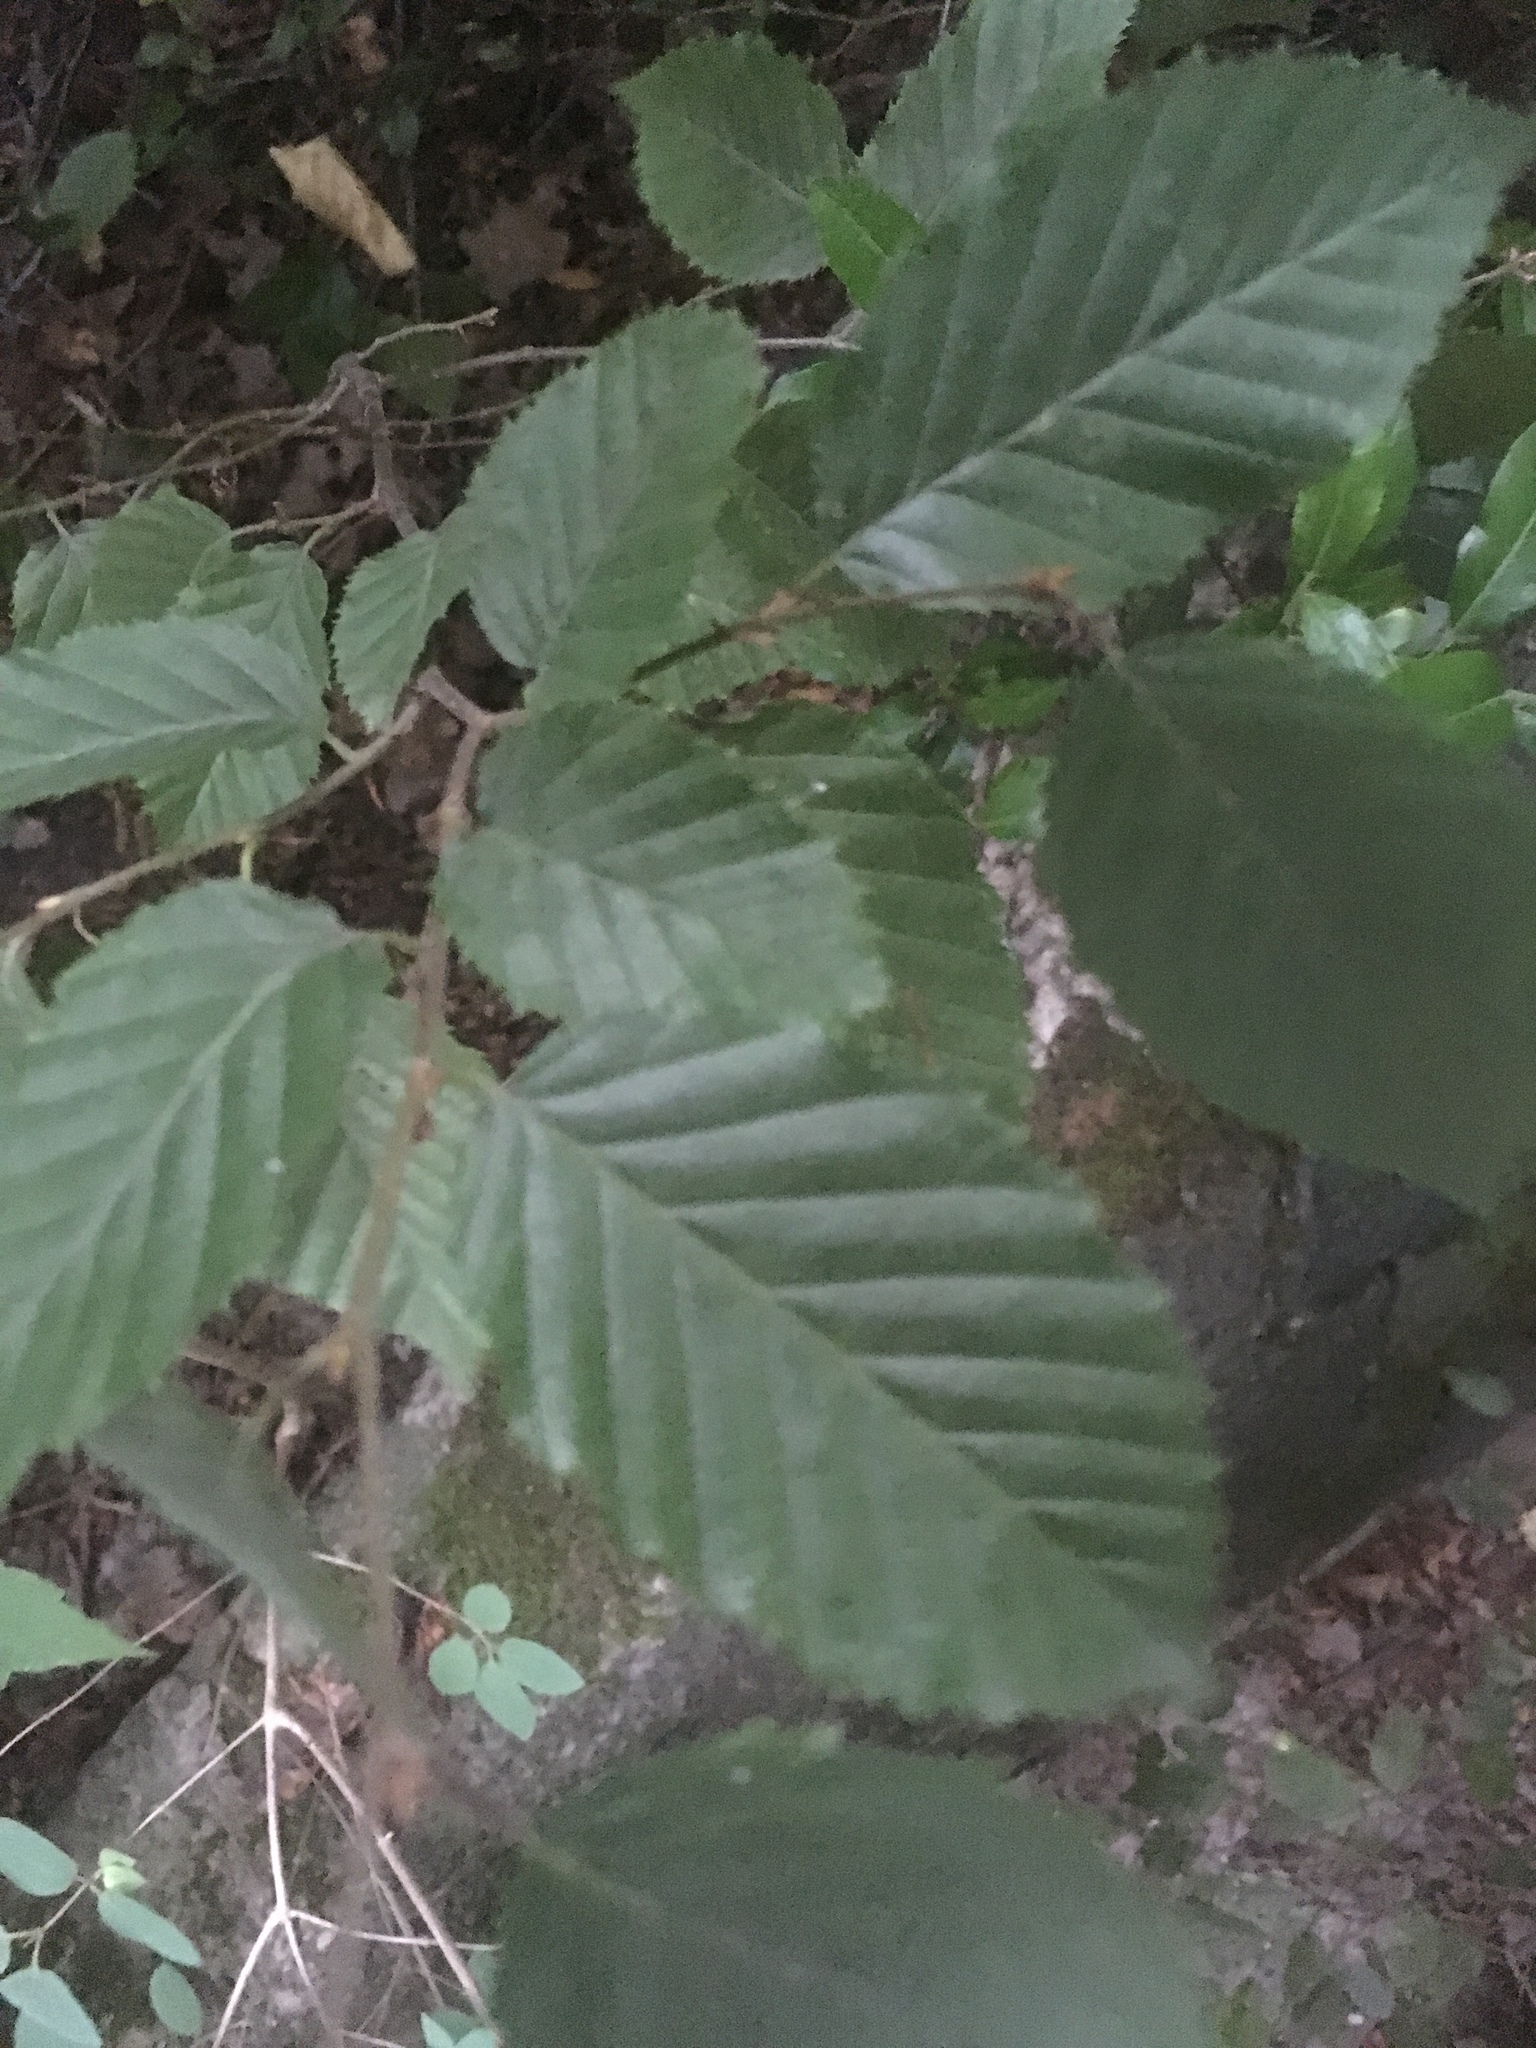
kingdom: Plantae
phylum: Tracheophyta
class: Magnoliopsida
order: Fagales
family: Betulaceae
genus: Carpinus
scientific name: Carpinus betulus
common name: Hornbeam
